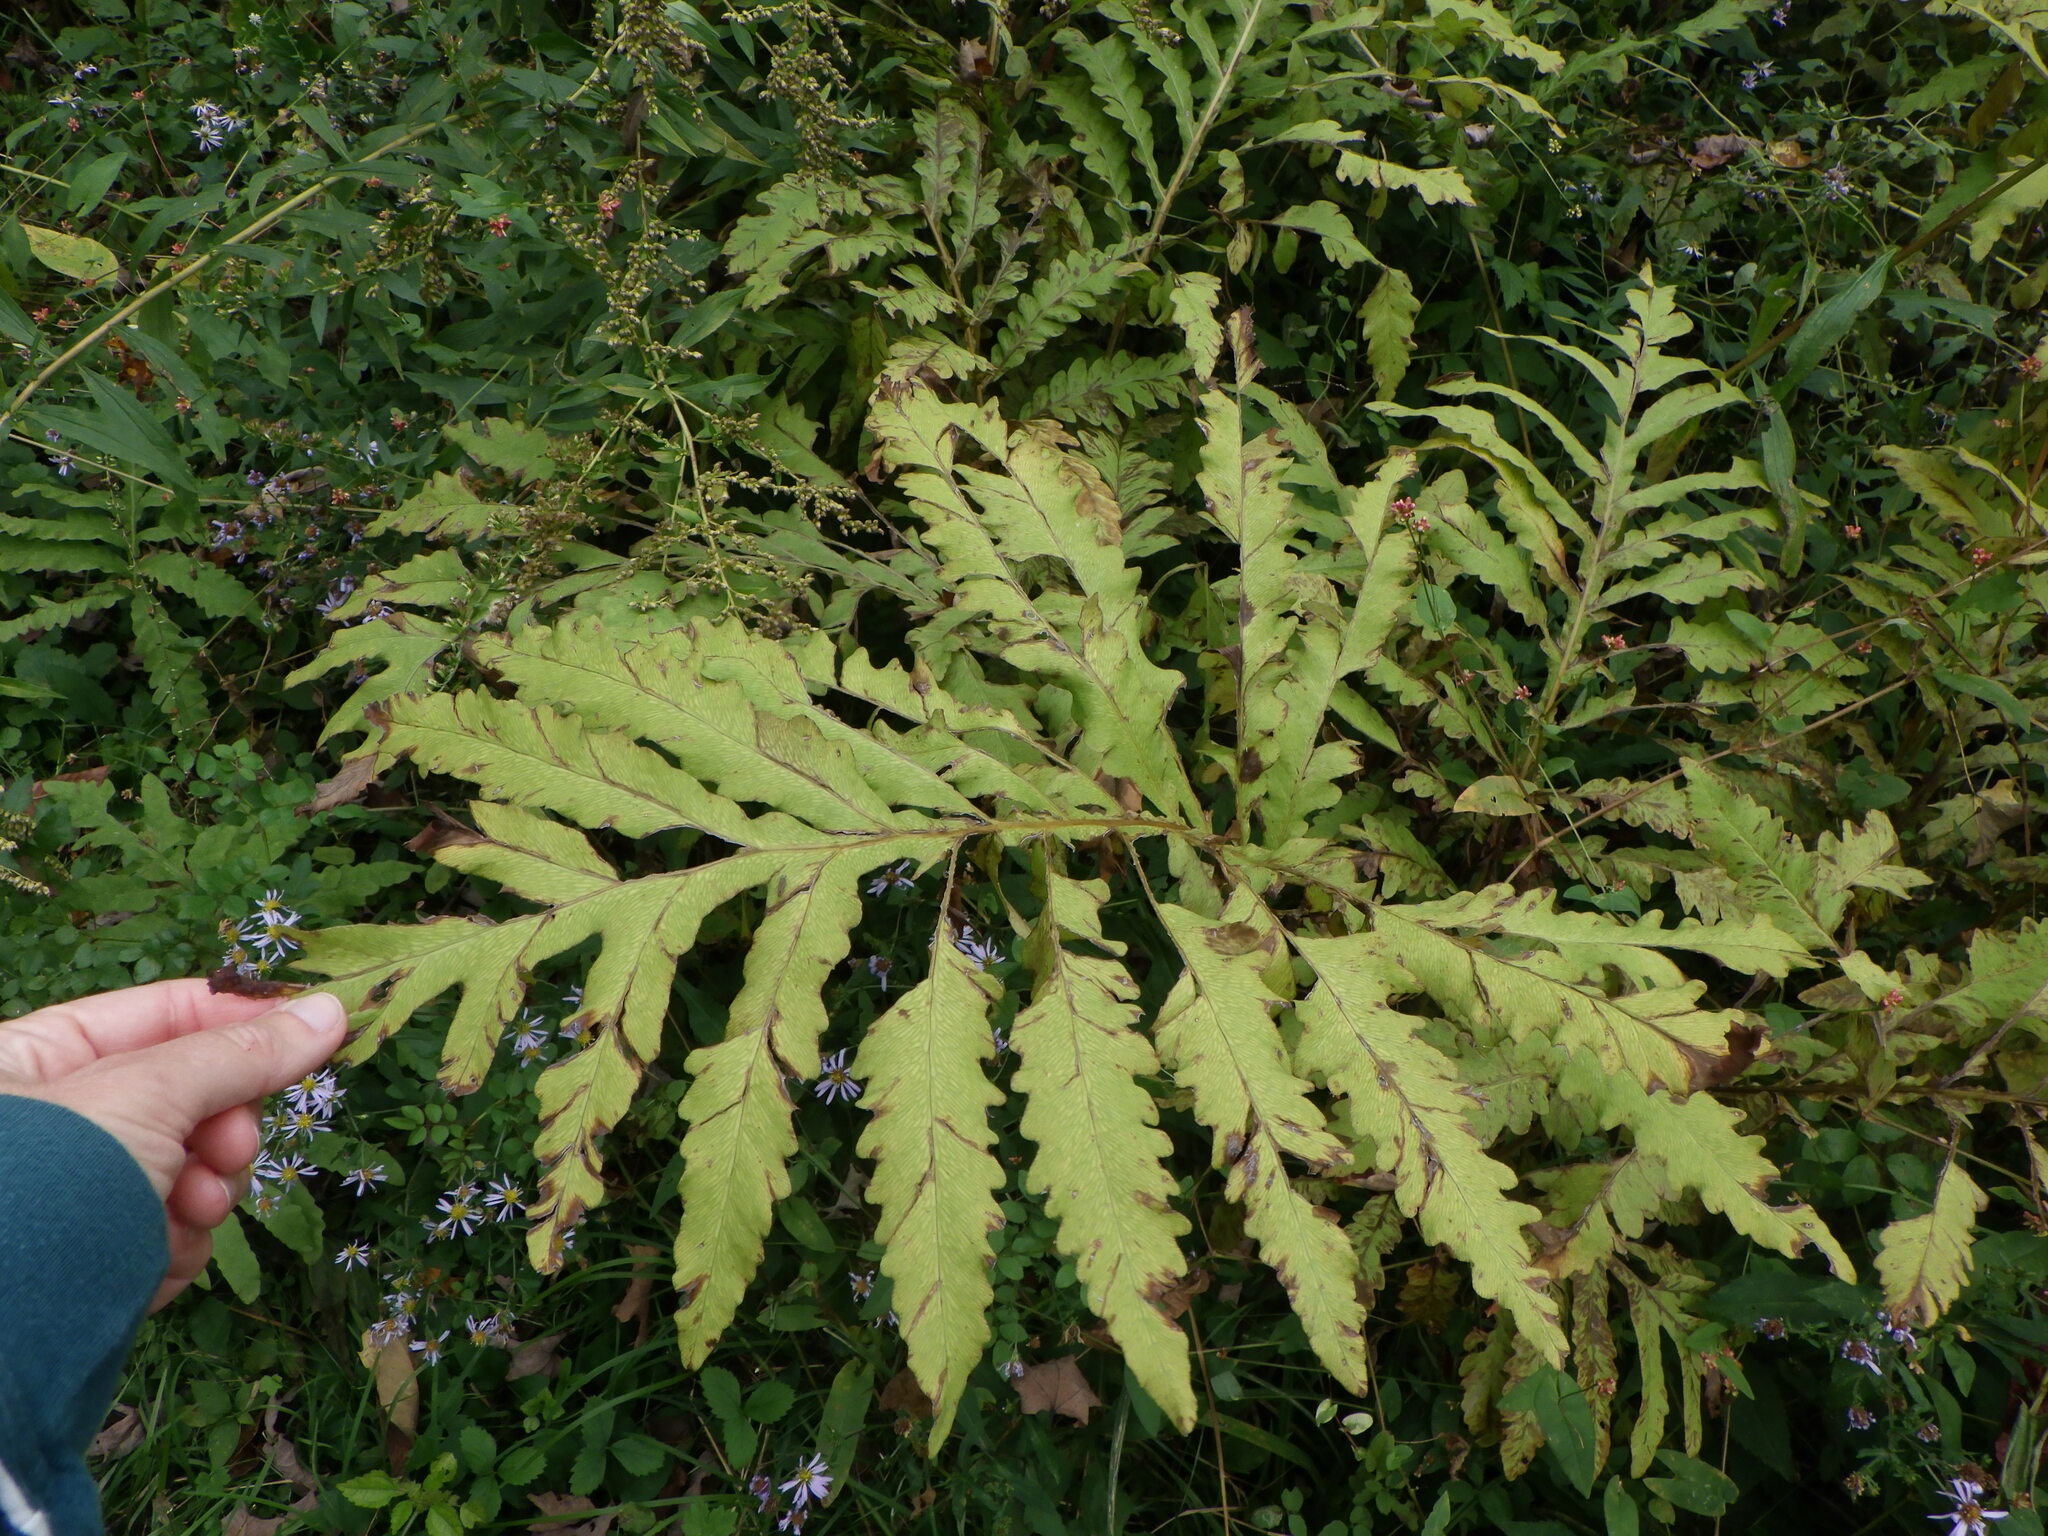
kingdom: Plantae
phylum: Tracheophyta
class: Polypodiopsida
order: Polypodiales
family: Onocleaceae
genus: Onoclea
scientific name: Onoclea sensibilis
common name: Sensitive fern
